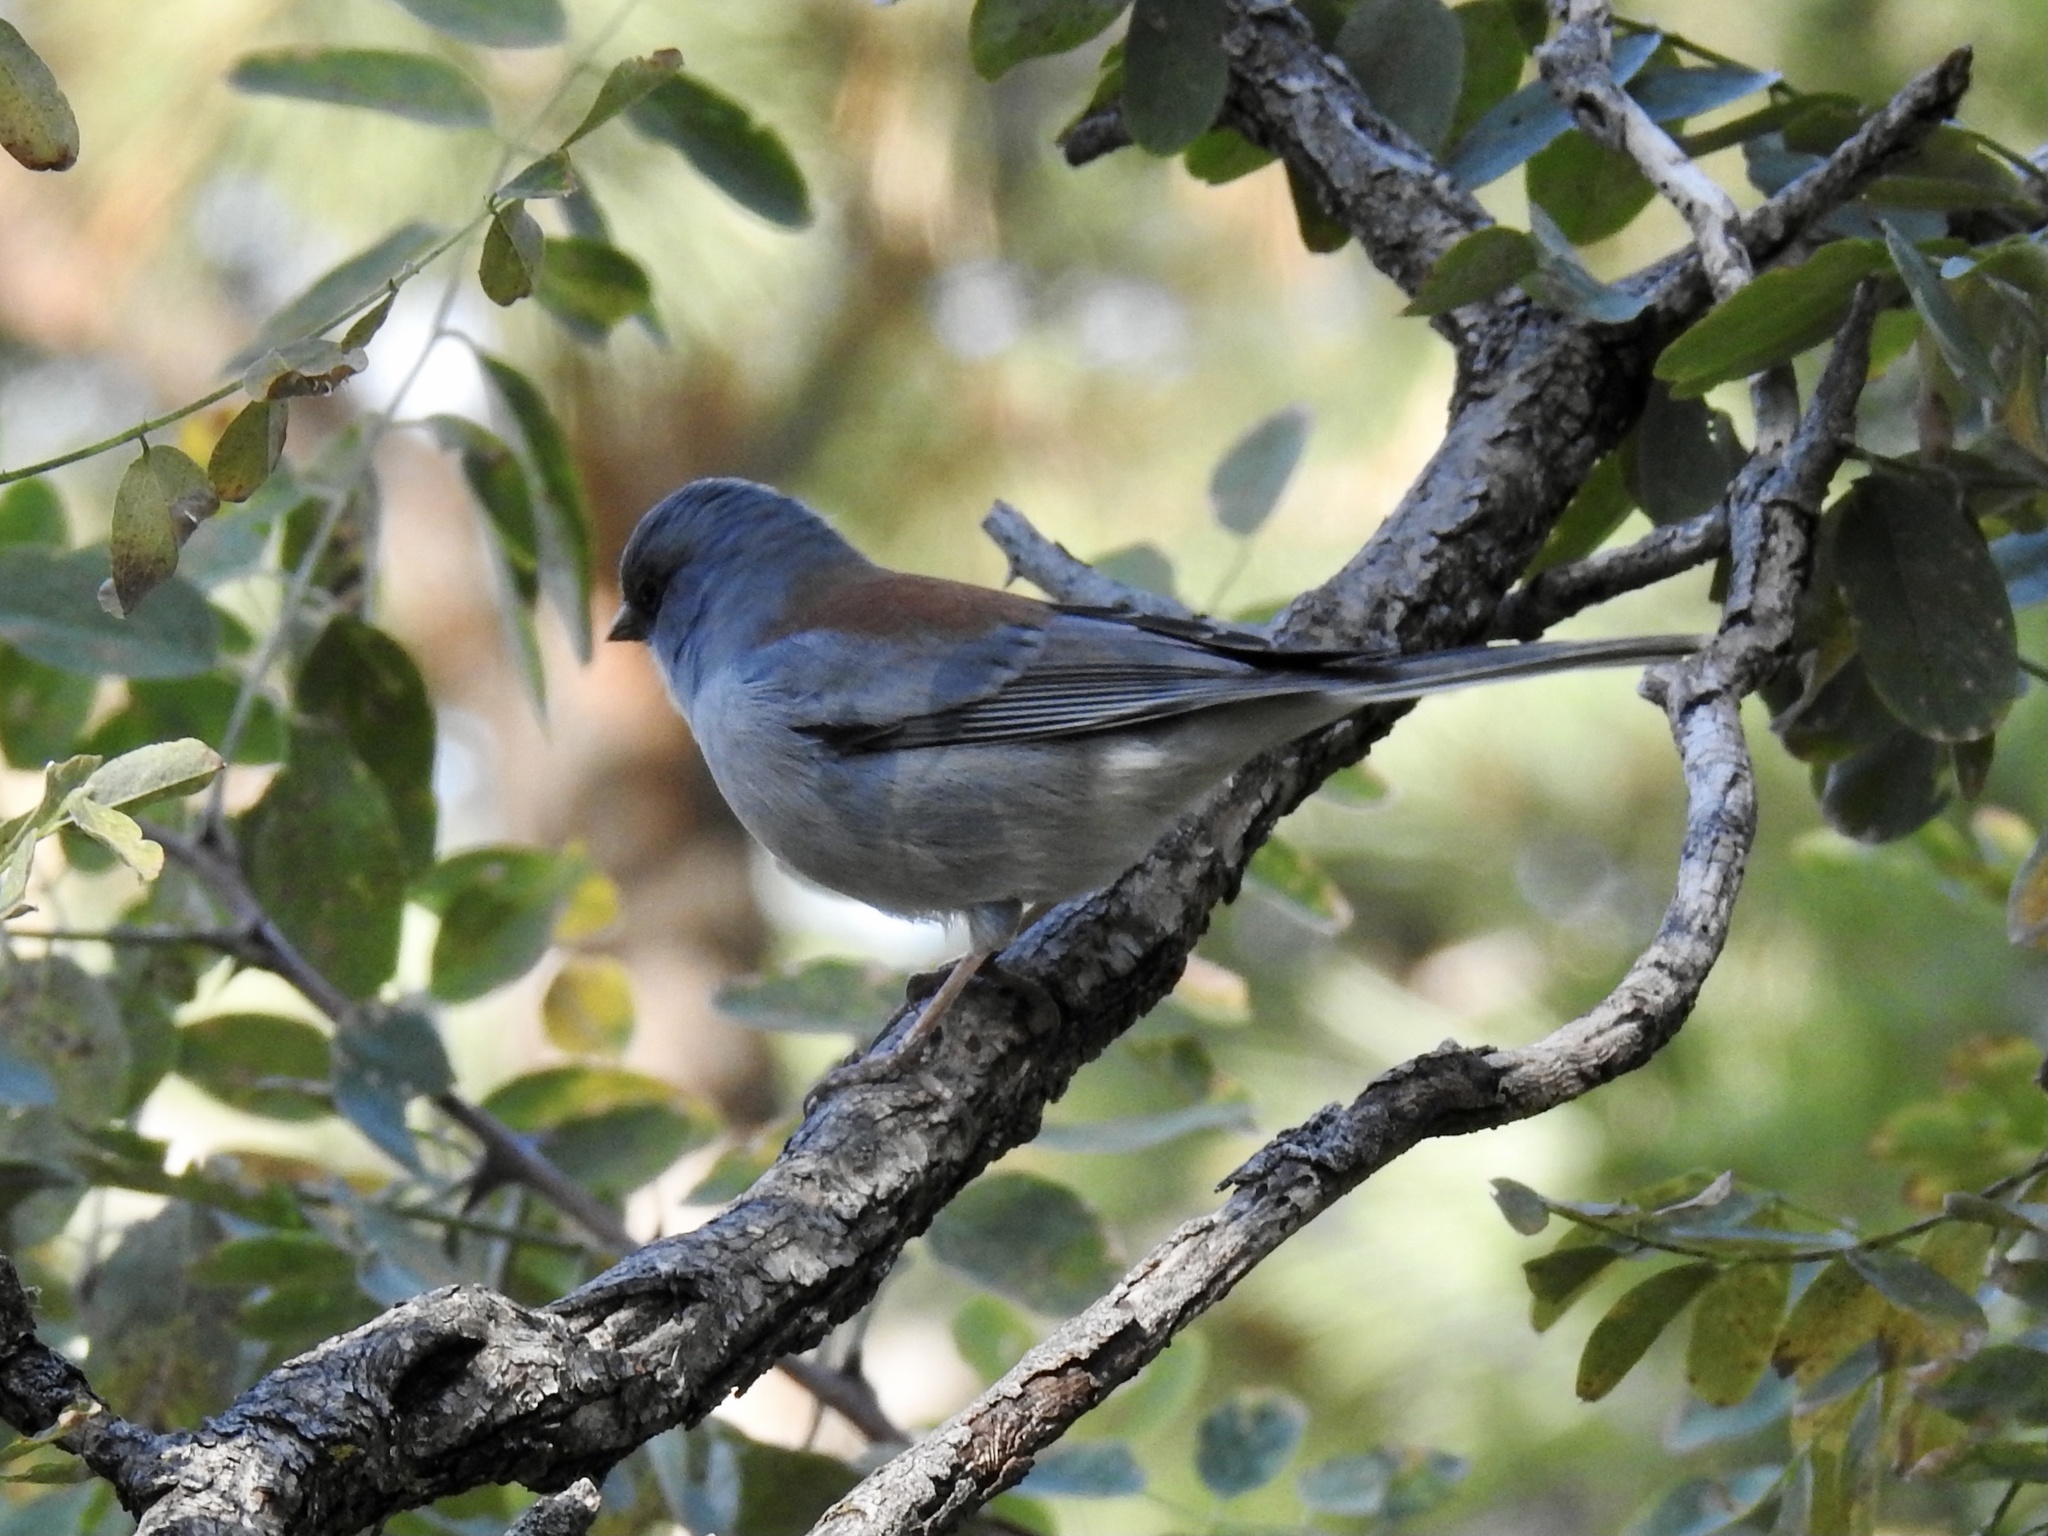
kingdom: Animalia
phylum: Chordata
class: Aves
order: Passeriformes
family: Passerellidae
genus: Junco
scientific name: Junco hyemalis
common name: Dark-eyed junco
